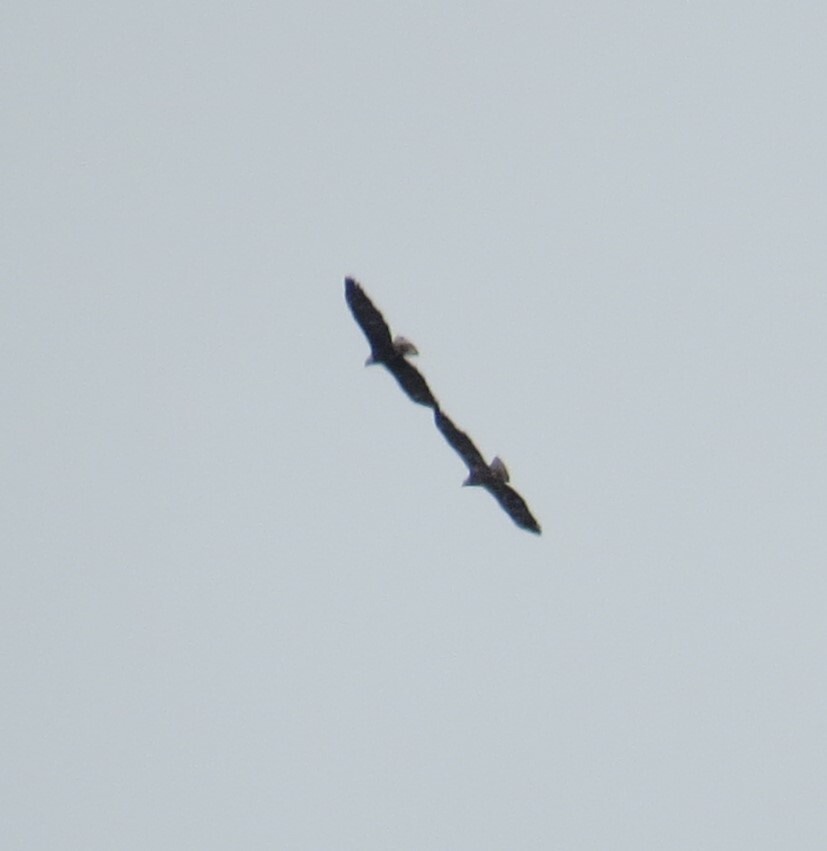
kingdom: Animalia
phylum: Chordata
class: Aves
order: Accipitriformes
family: Accipitridae
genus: Haliaeetus
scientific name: Haliaeetus leucocephalus
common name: Bald eagle
